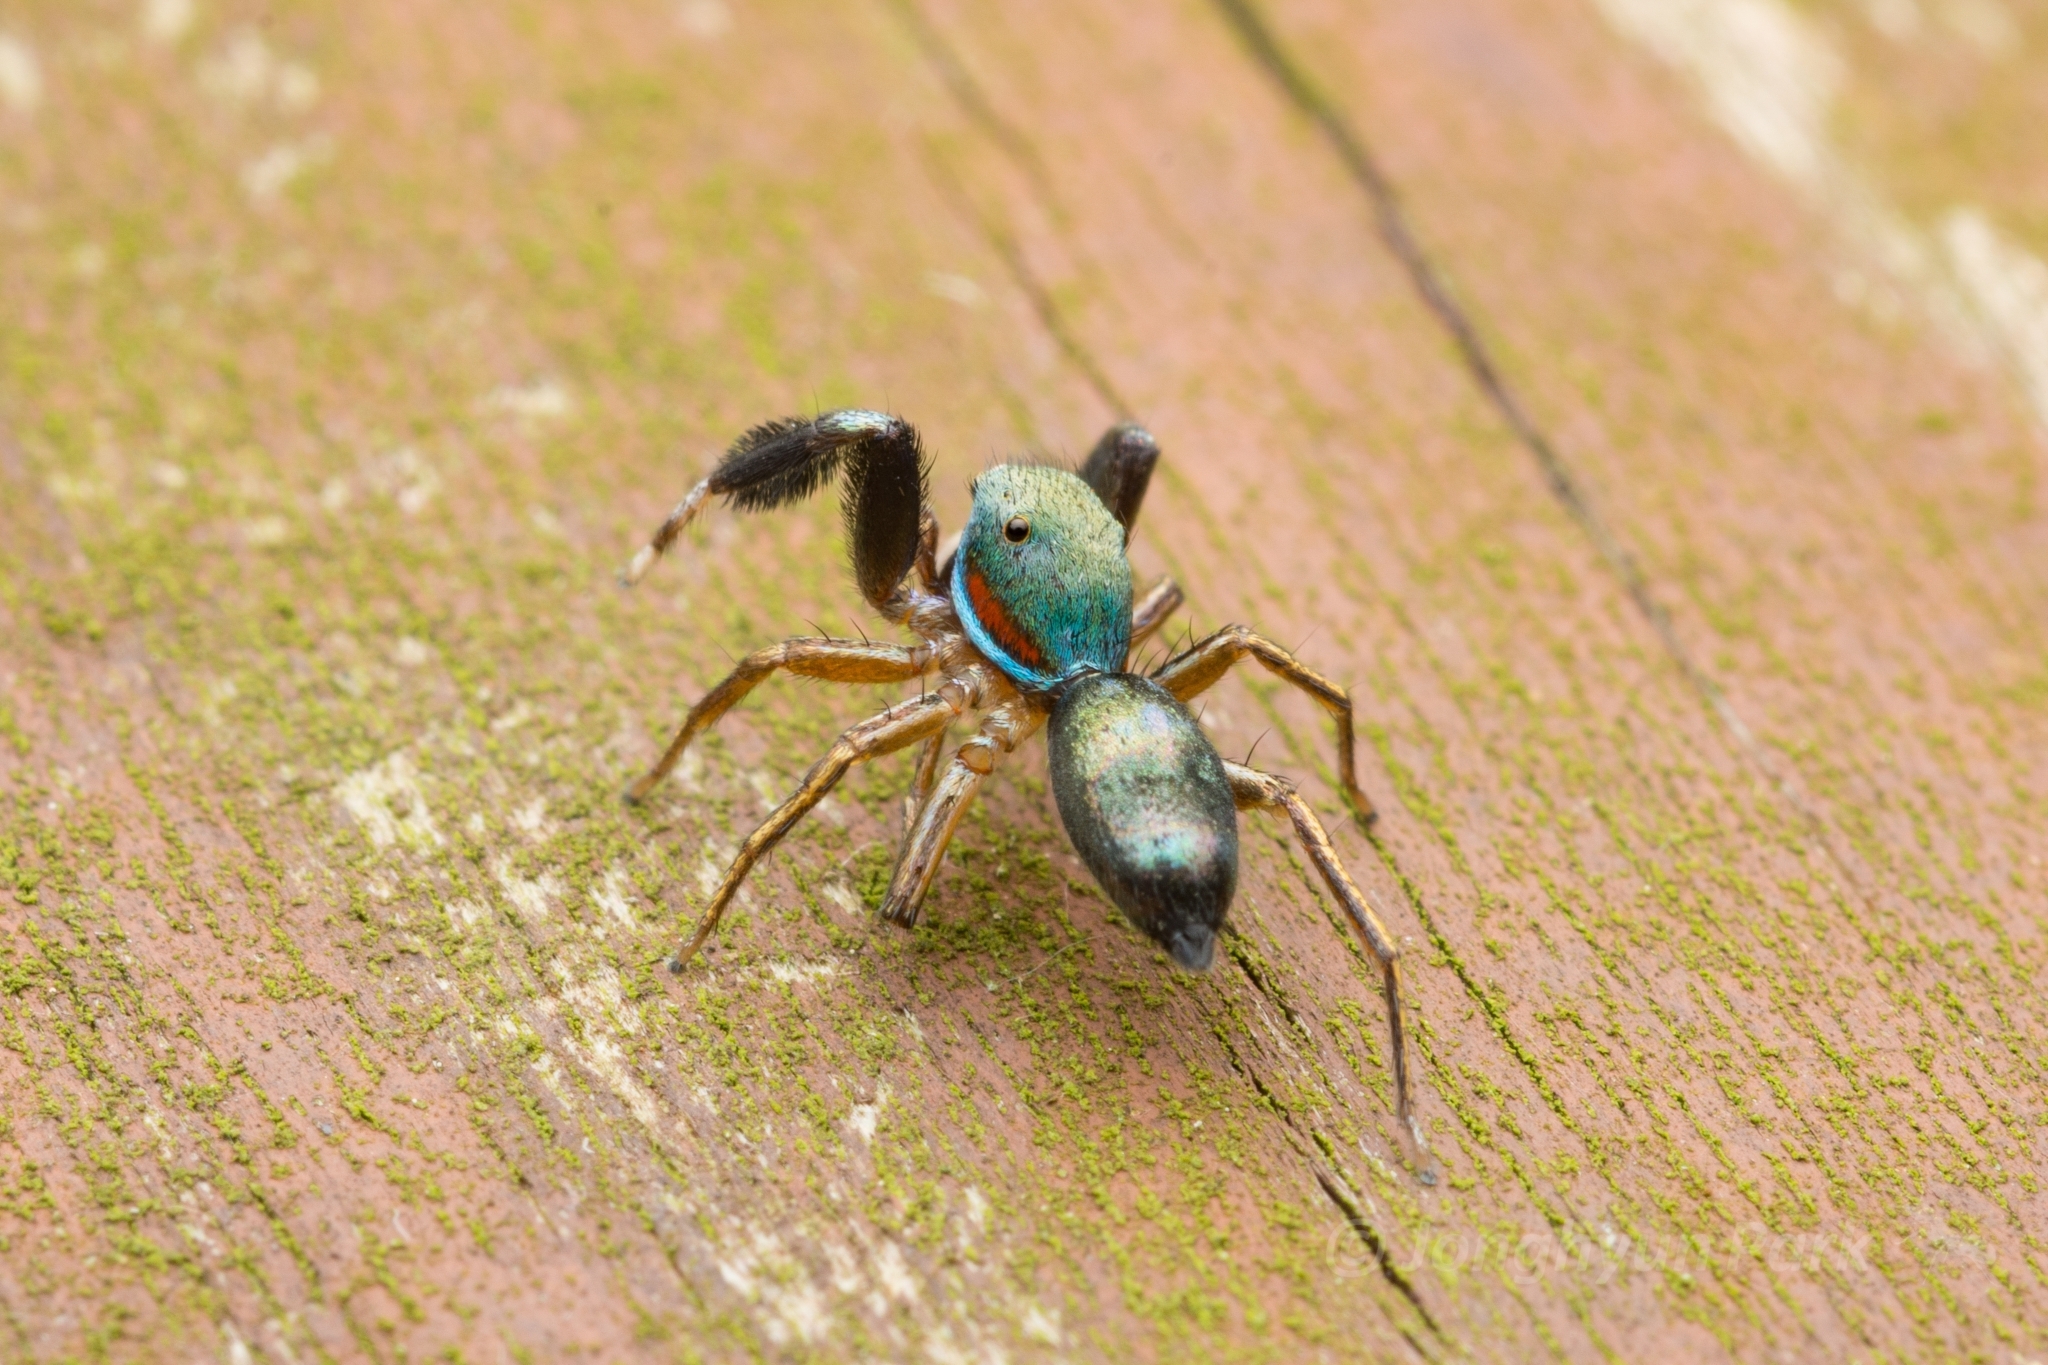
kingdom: Animalia
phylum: Arthropoda
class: Arachnida
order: Araneae
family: Salticidae
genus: Siler
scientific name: Siler cupreus
